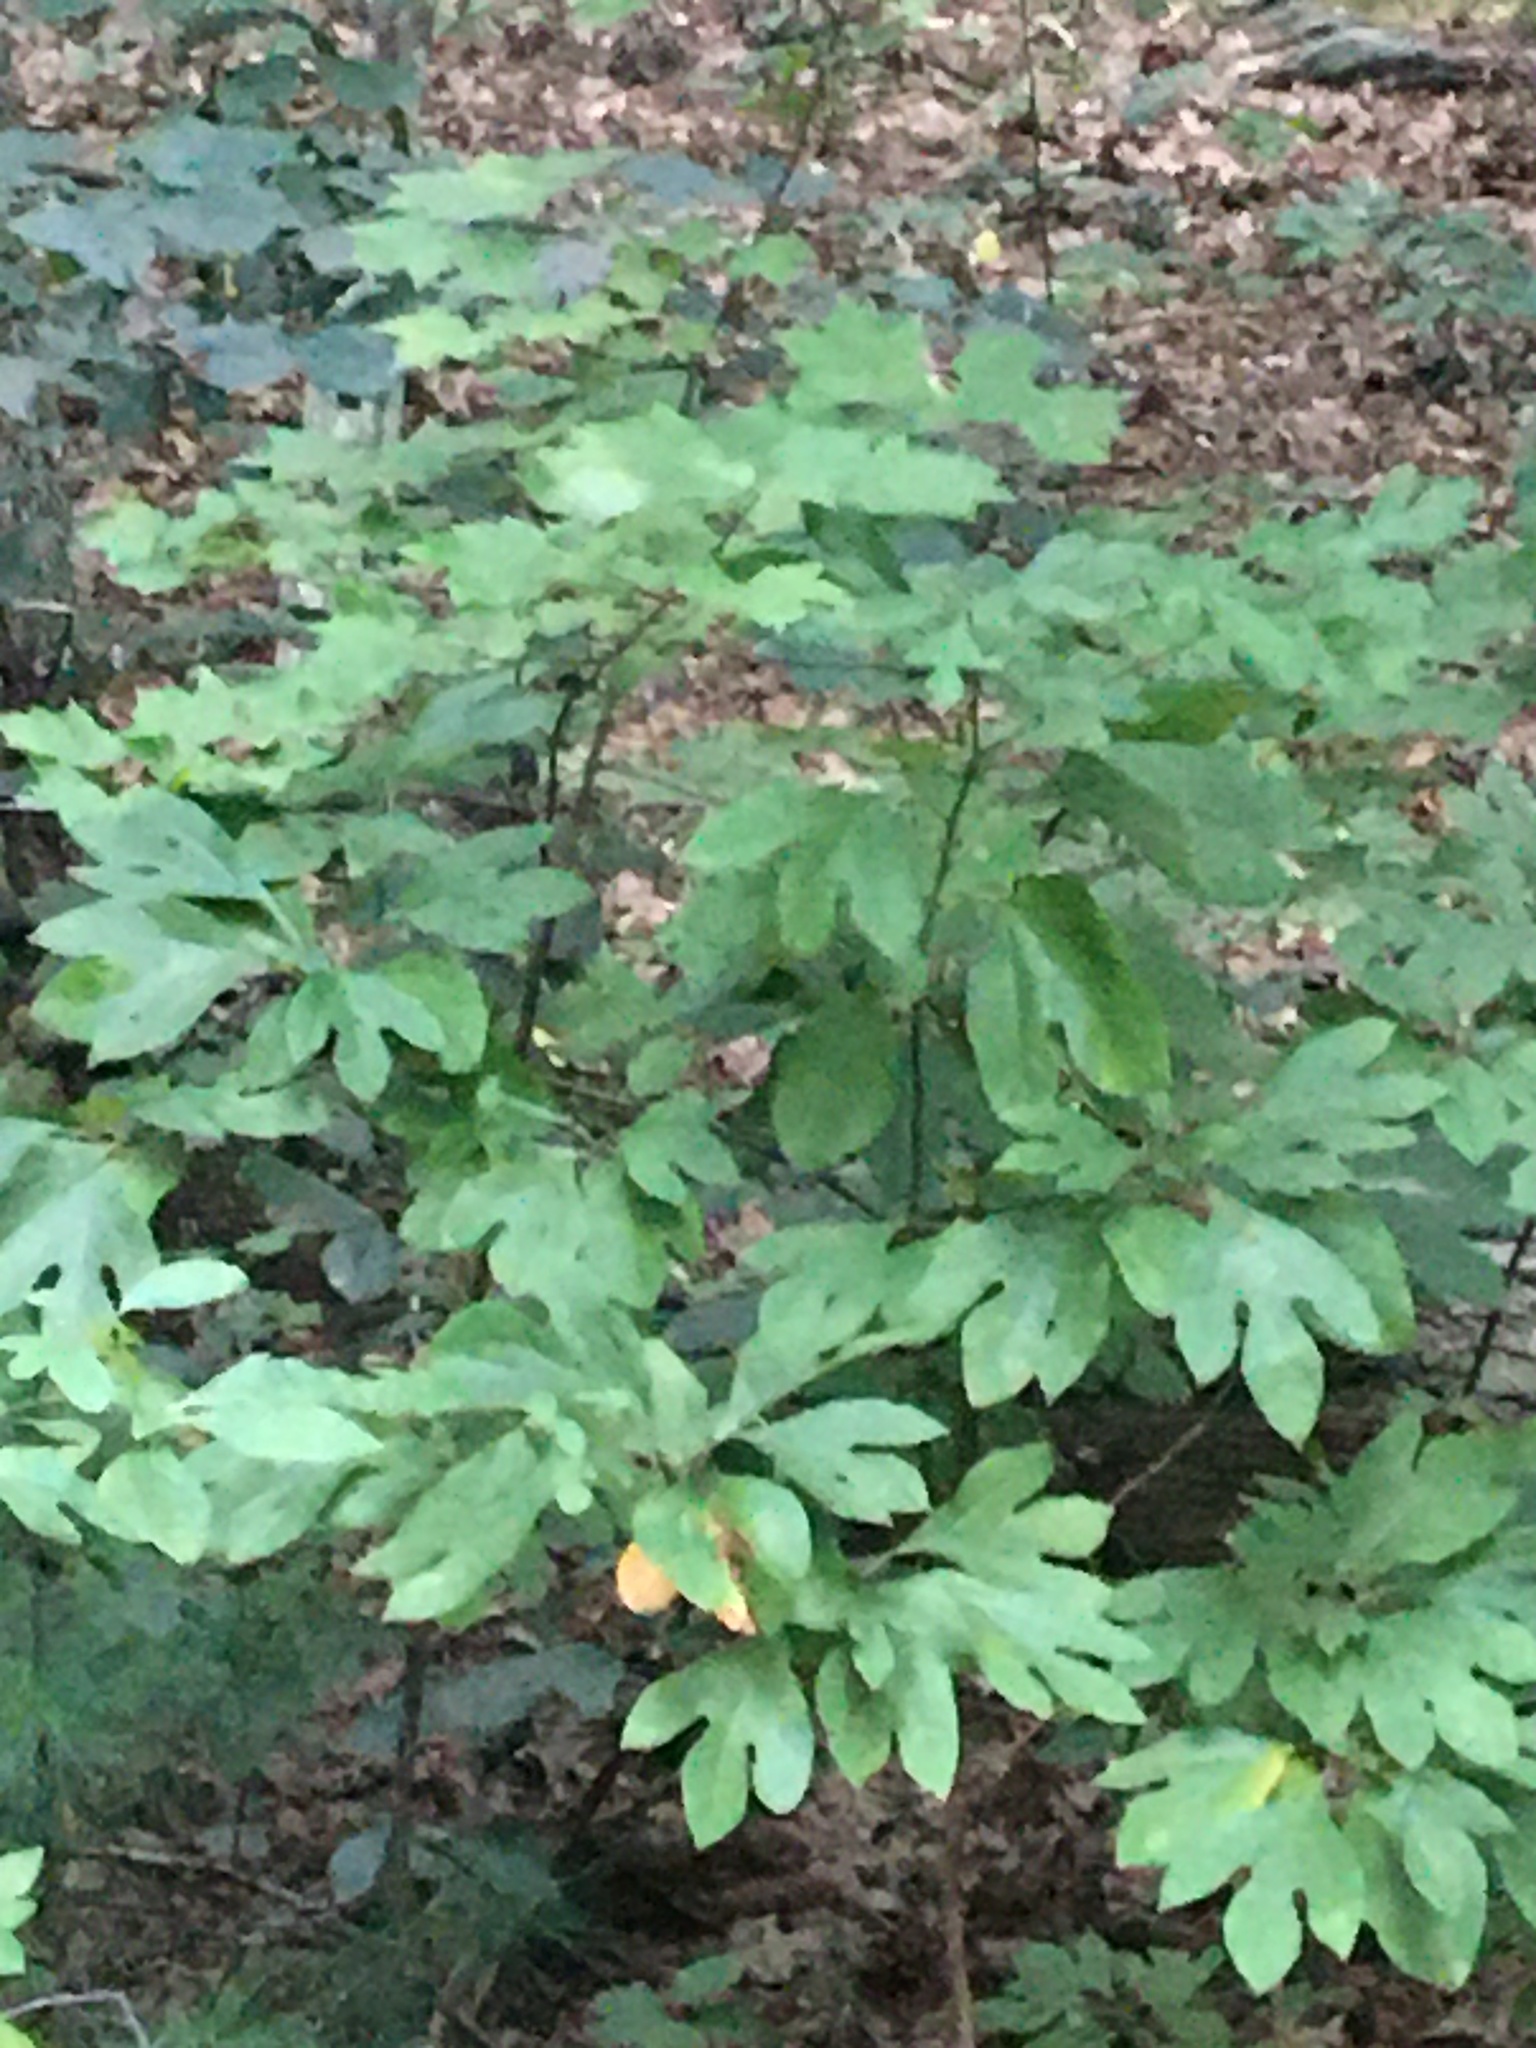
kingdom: Plantae
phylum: Tracheophyta
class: Magnoliopsida
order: Laurales
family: Lauraceae
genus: Sassafras
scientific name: Sassafras albidum
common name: Sassafras
